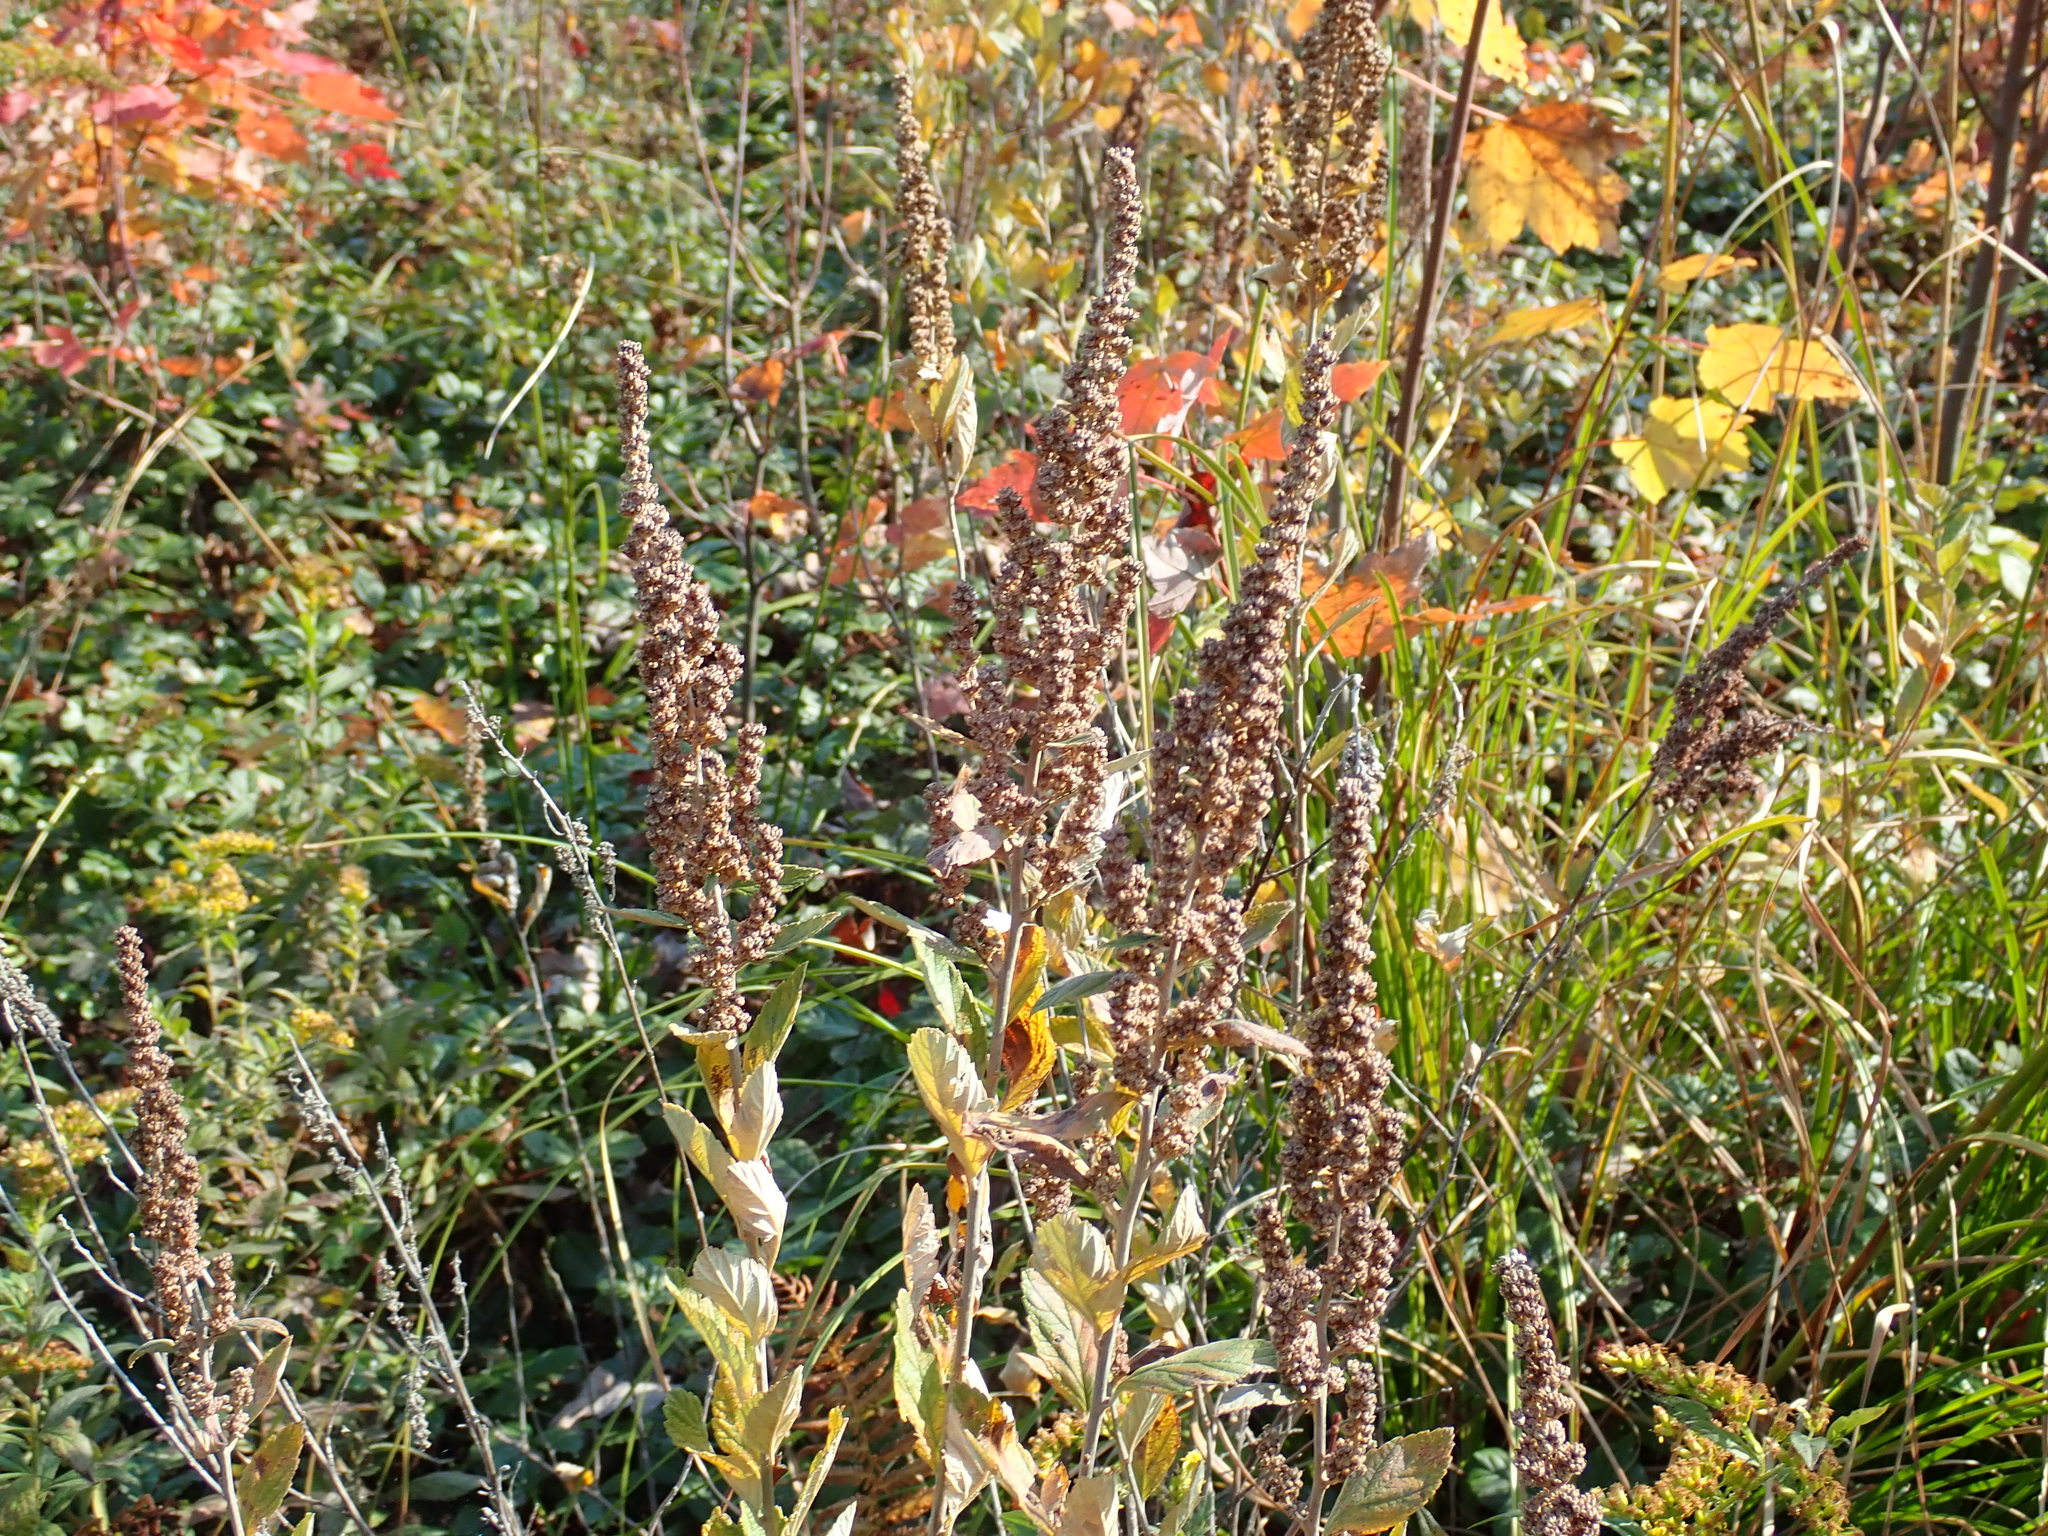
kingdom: Plantae
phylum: Tracheophyta
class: Magnoliopsida
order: Rosales
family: Rosaceae
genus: Spiraea
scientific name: Spiraea tomentosa
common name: Hardhack
